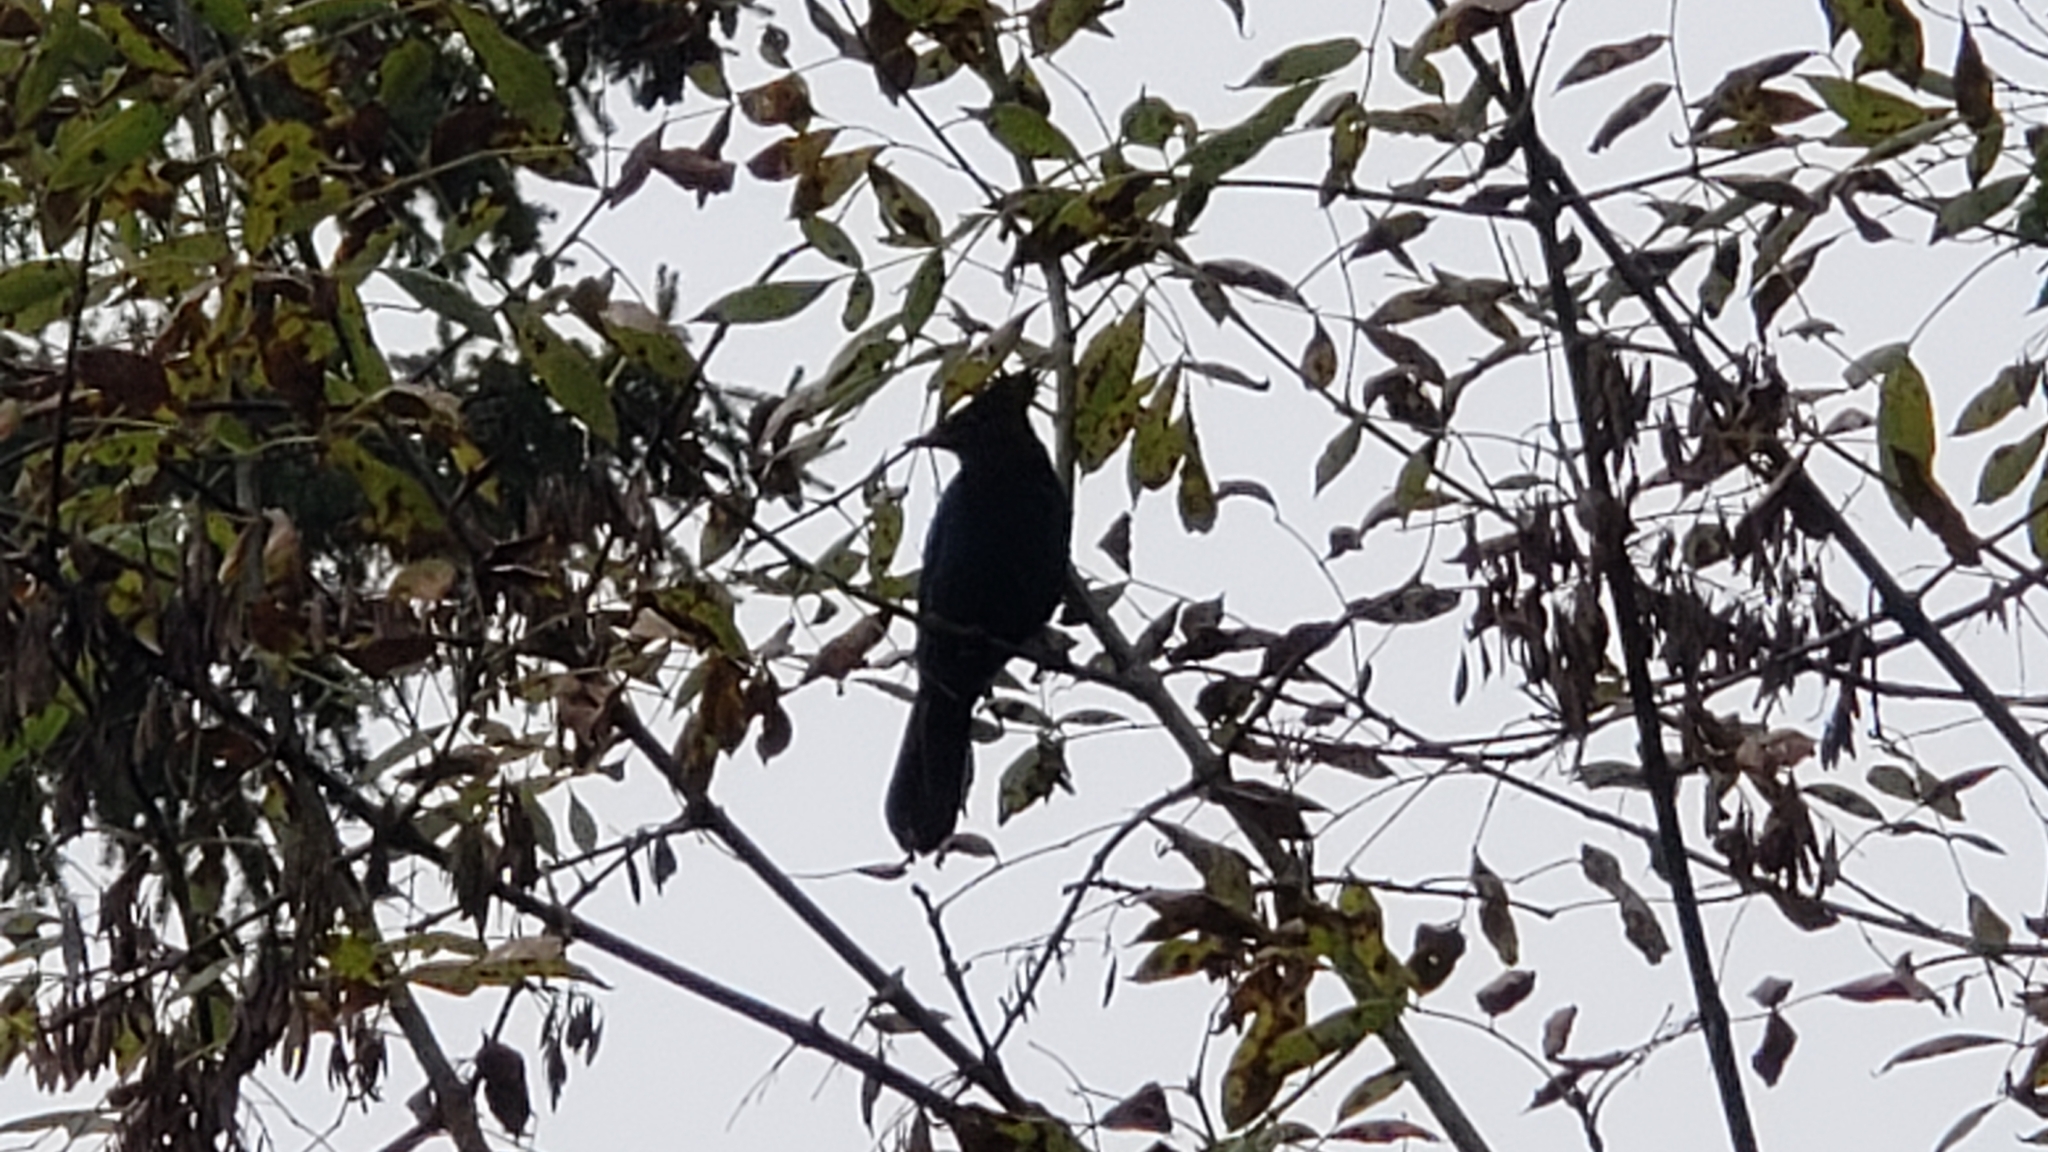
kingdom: Animalia
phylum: Chordata
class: Aves
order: Passeriformes
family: Corvidae
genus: Cyanocitta
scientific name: Cyanocitta stelleri
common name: Steller's jay
